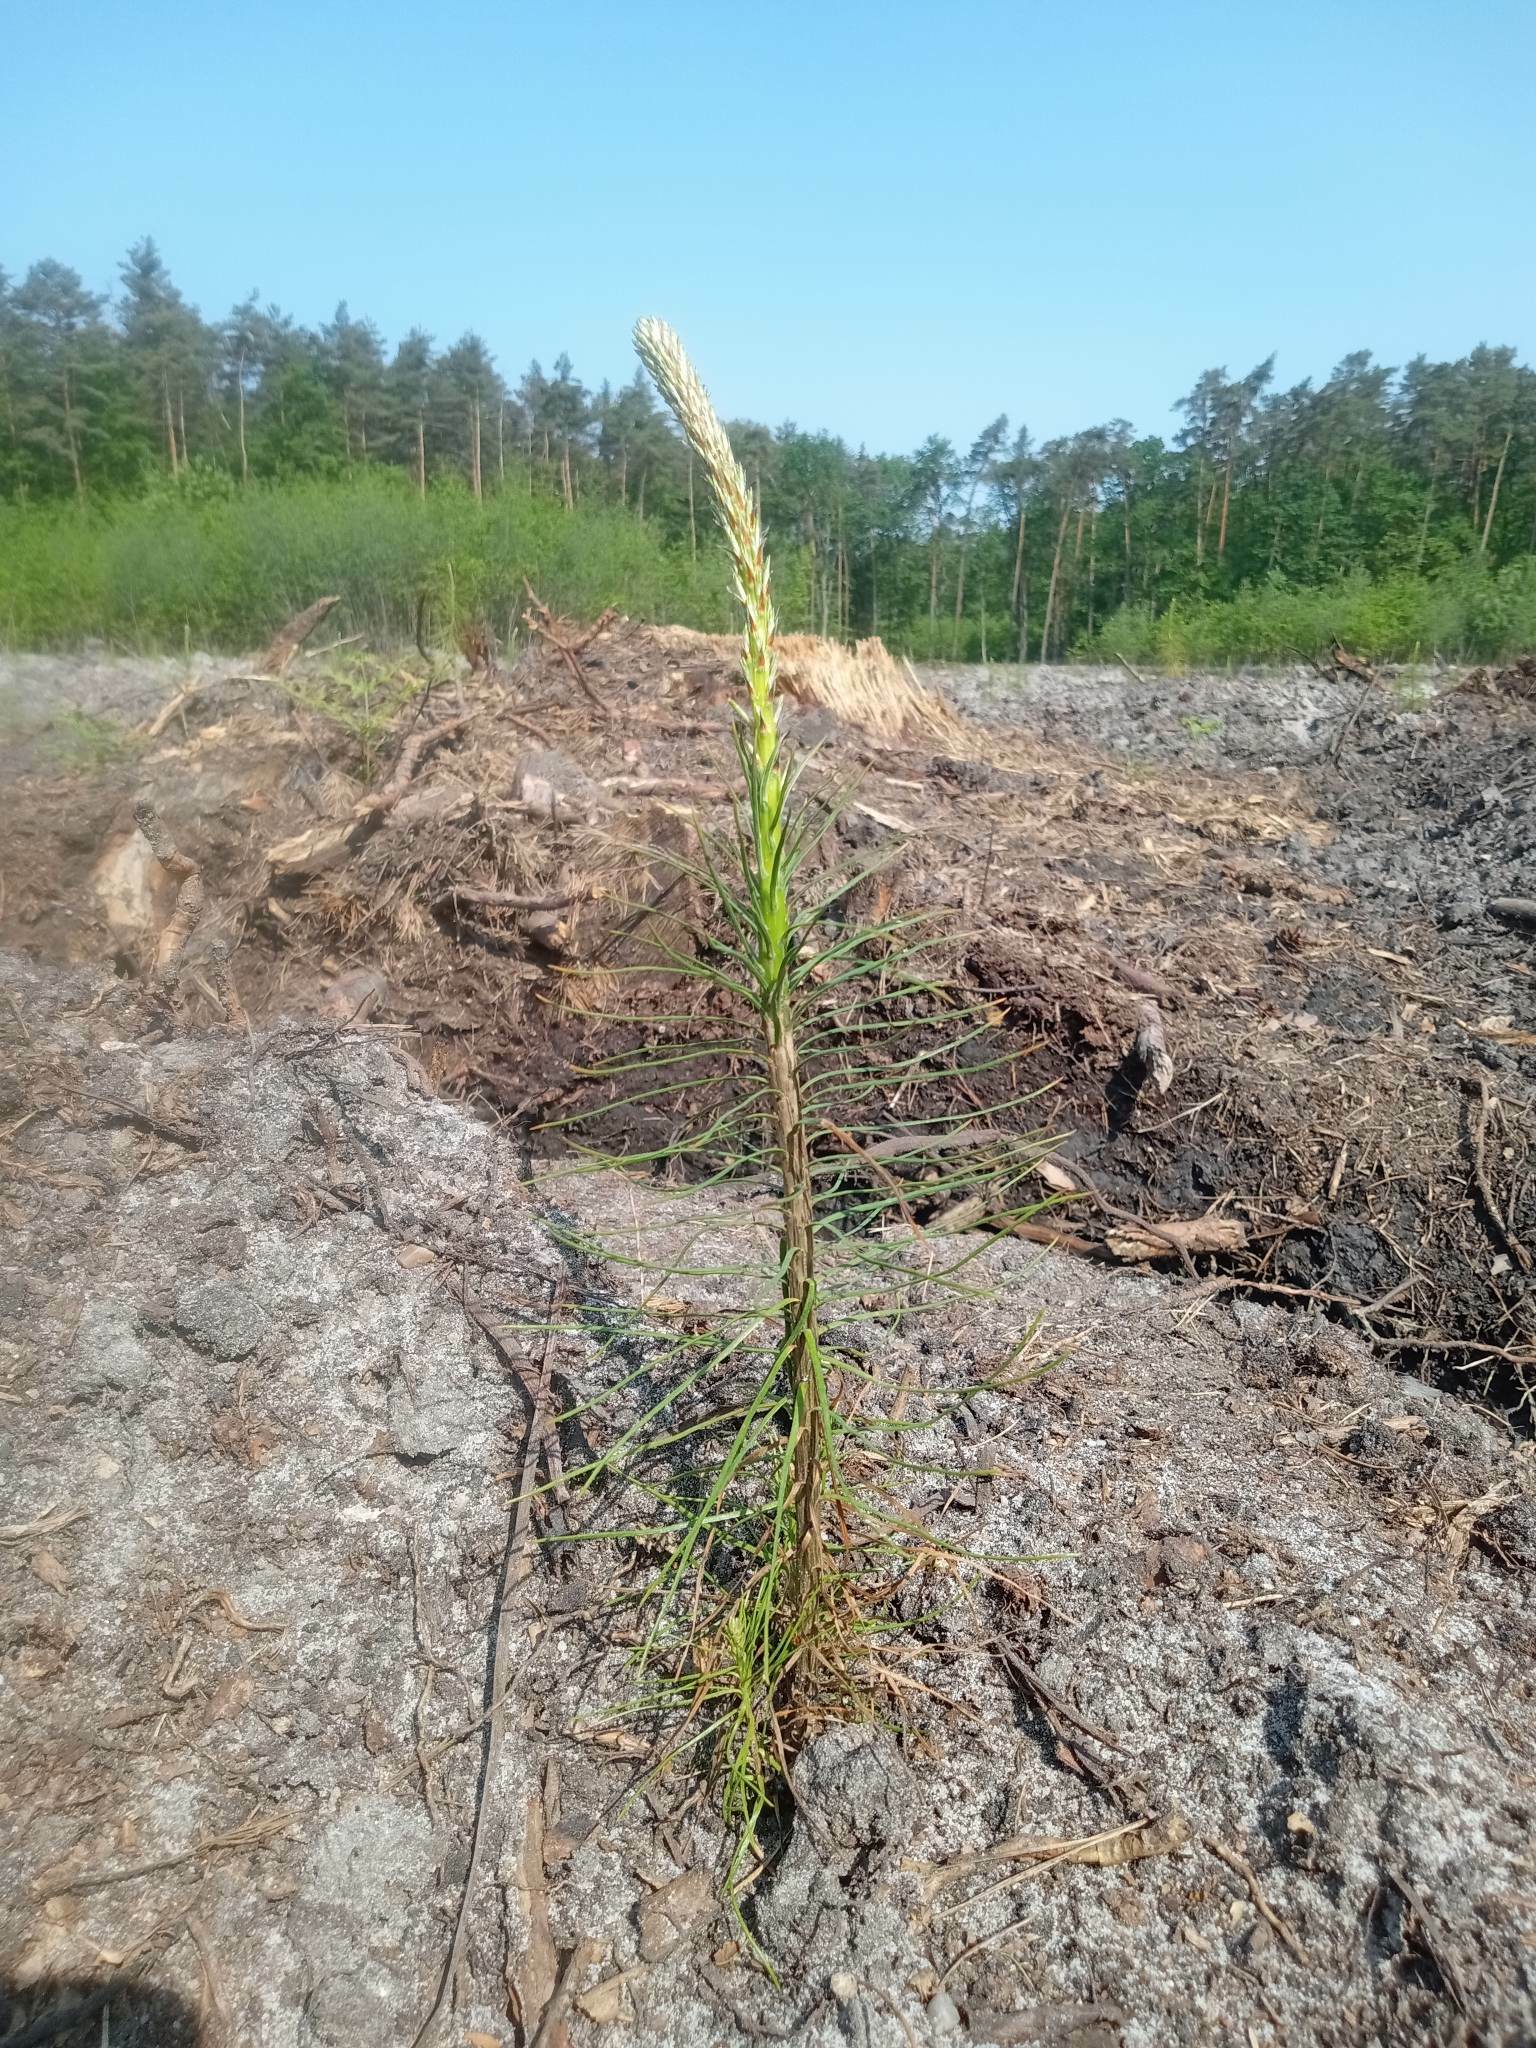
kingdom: Plantae
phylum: Tracheophyta
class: Pinopsida
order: Pinales
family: Pinaceae
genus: Pinus
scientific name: Pinus sylvestris
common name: Scots pine
